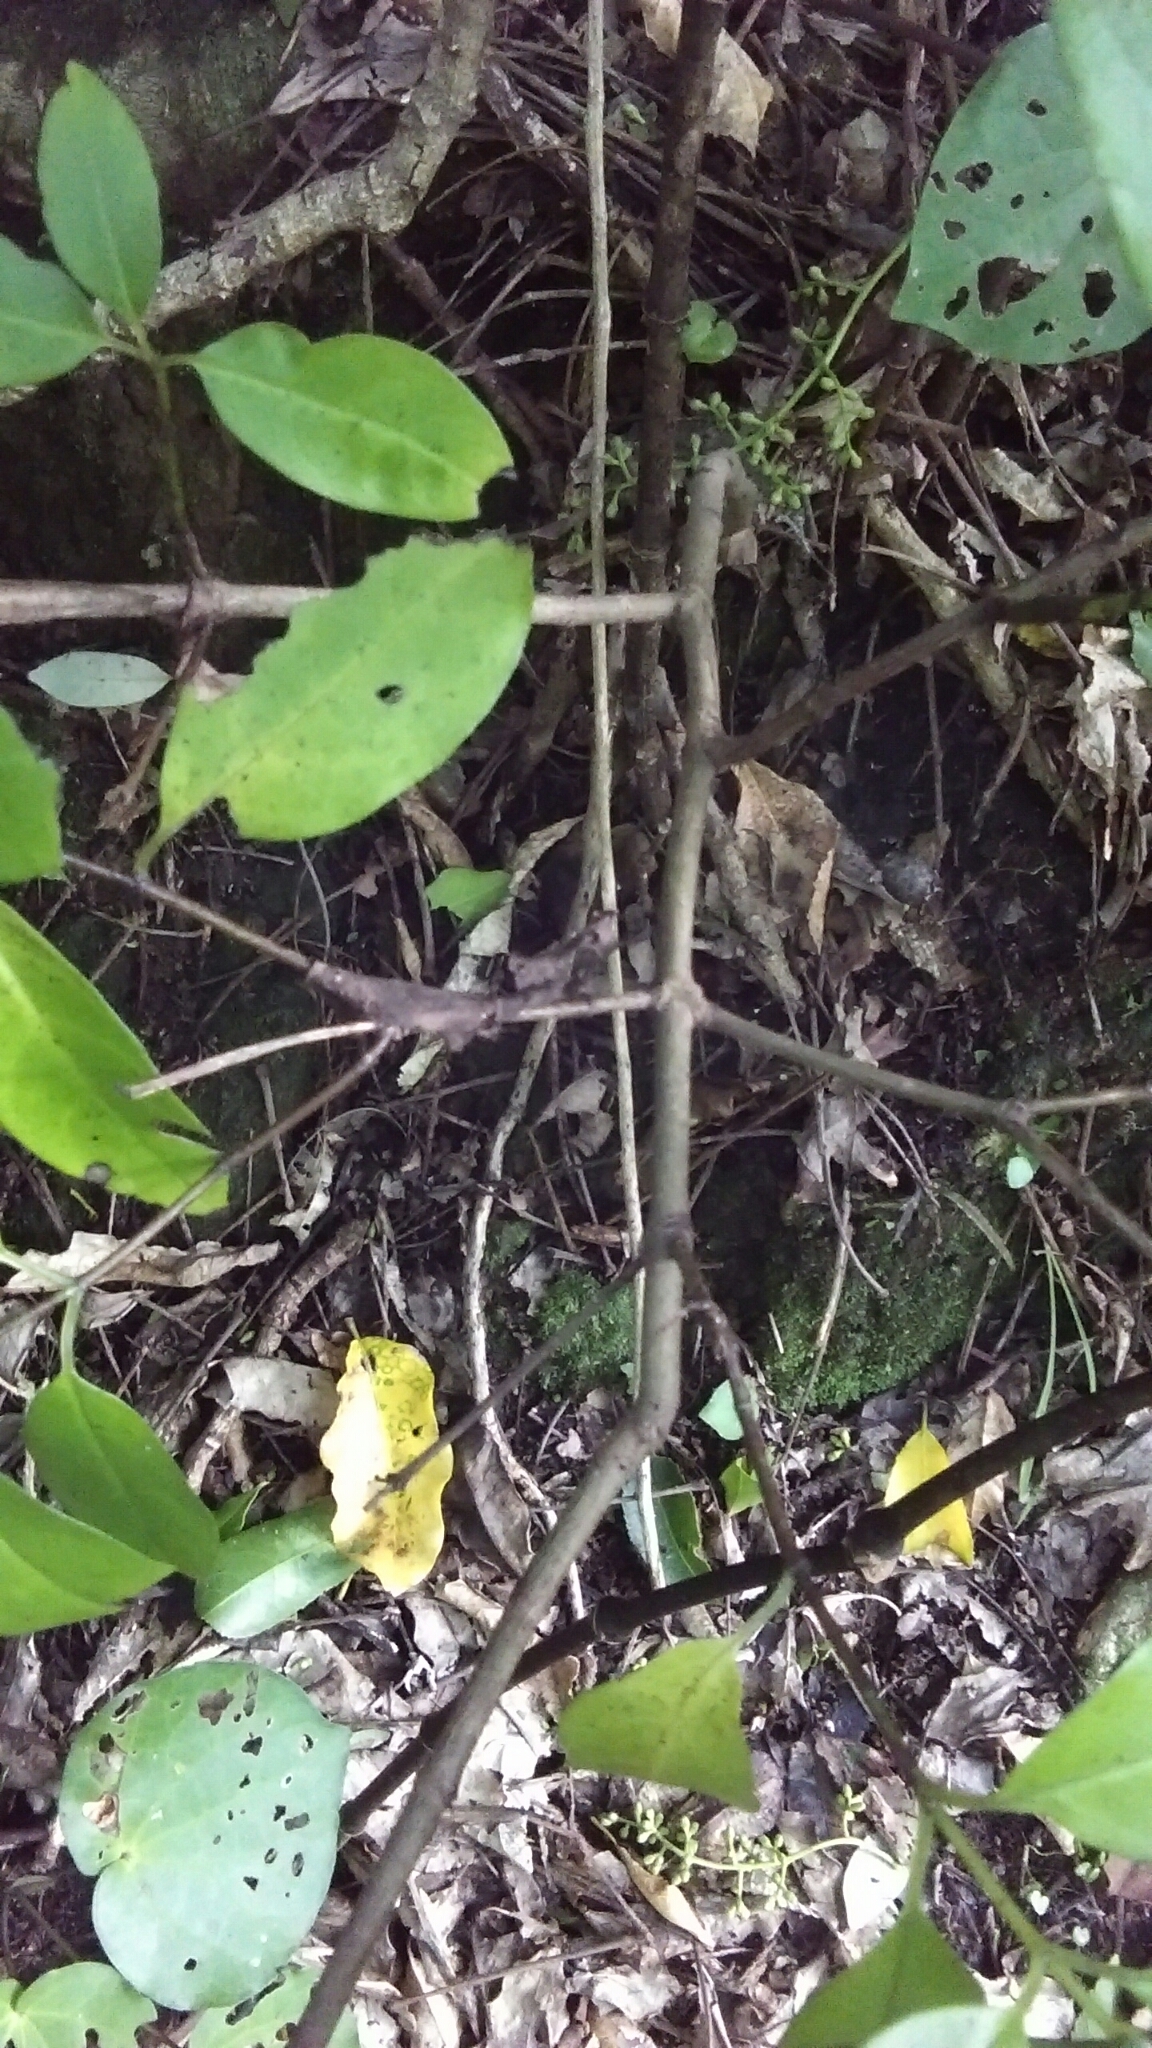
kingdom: Plantae
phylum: Tracheophyta
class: Magnoliopsida
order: Gentianales
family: Loganiaceae
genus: Geniostoma
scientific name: Geniostoma ligustrifolium
